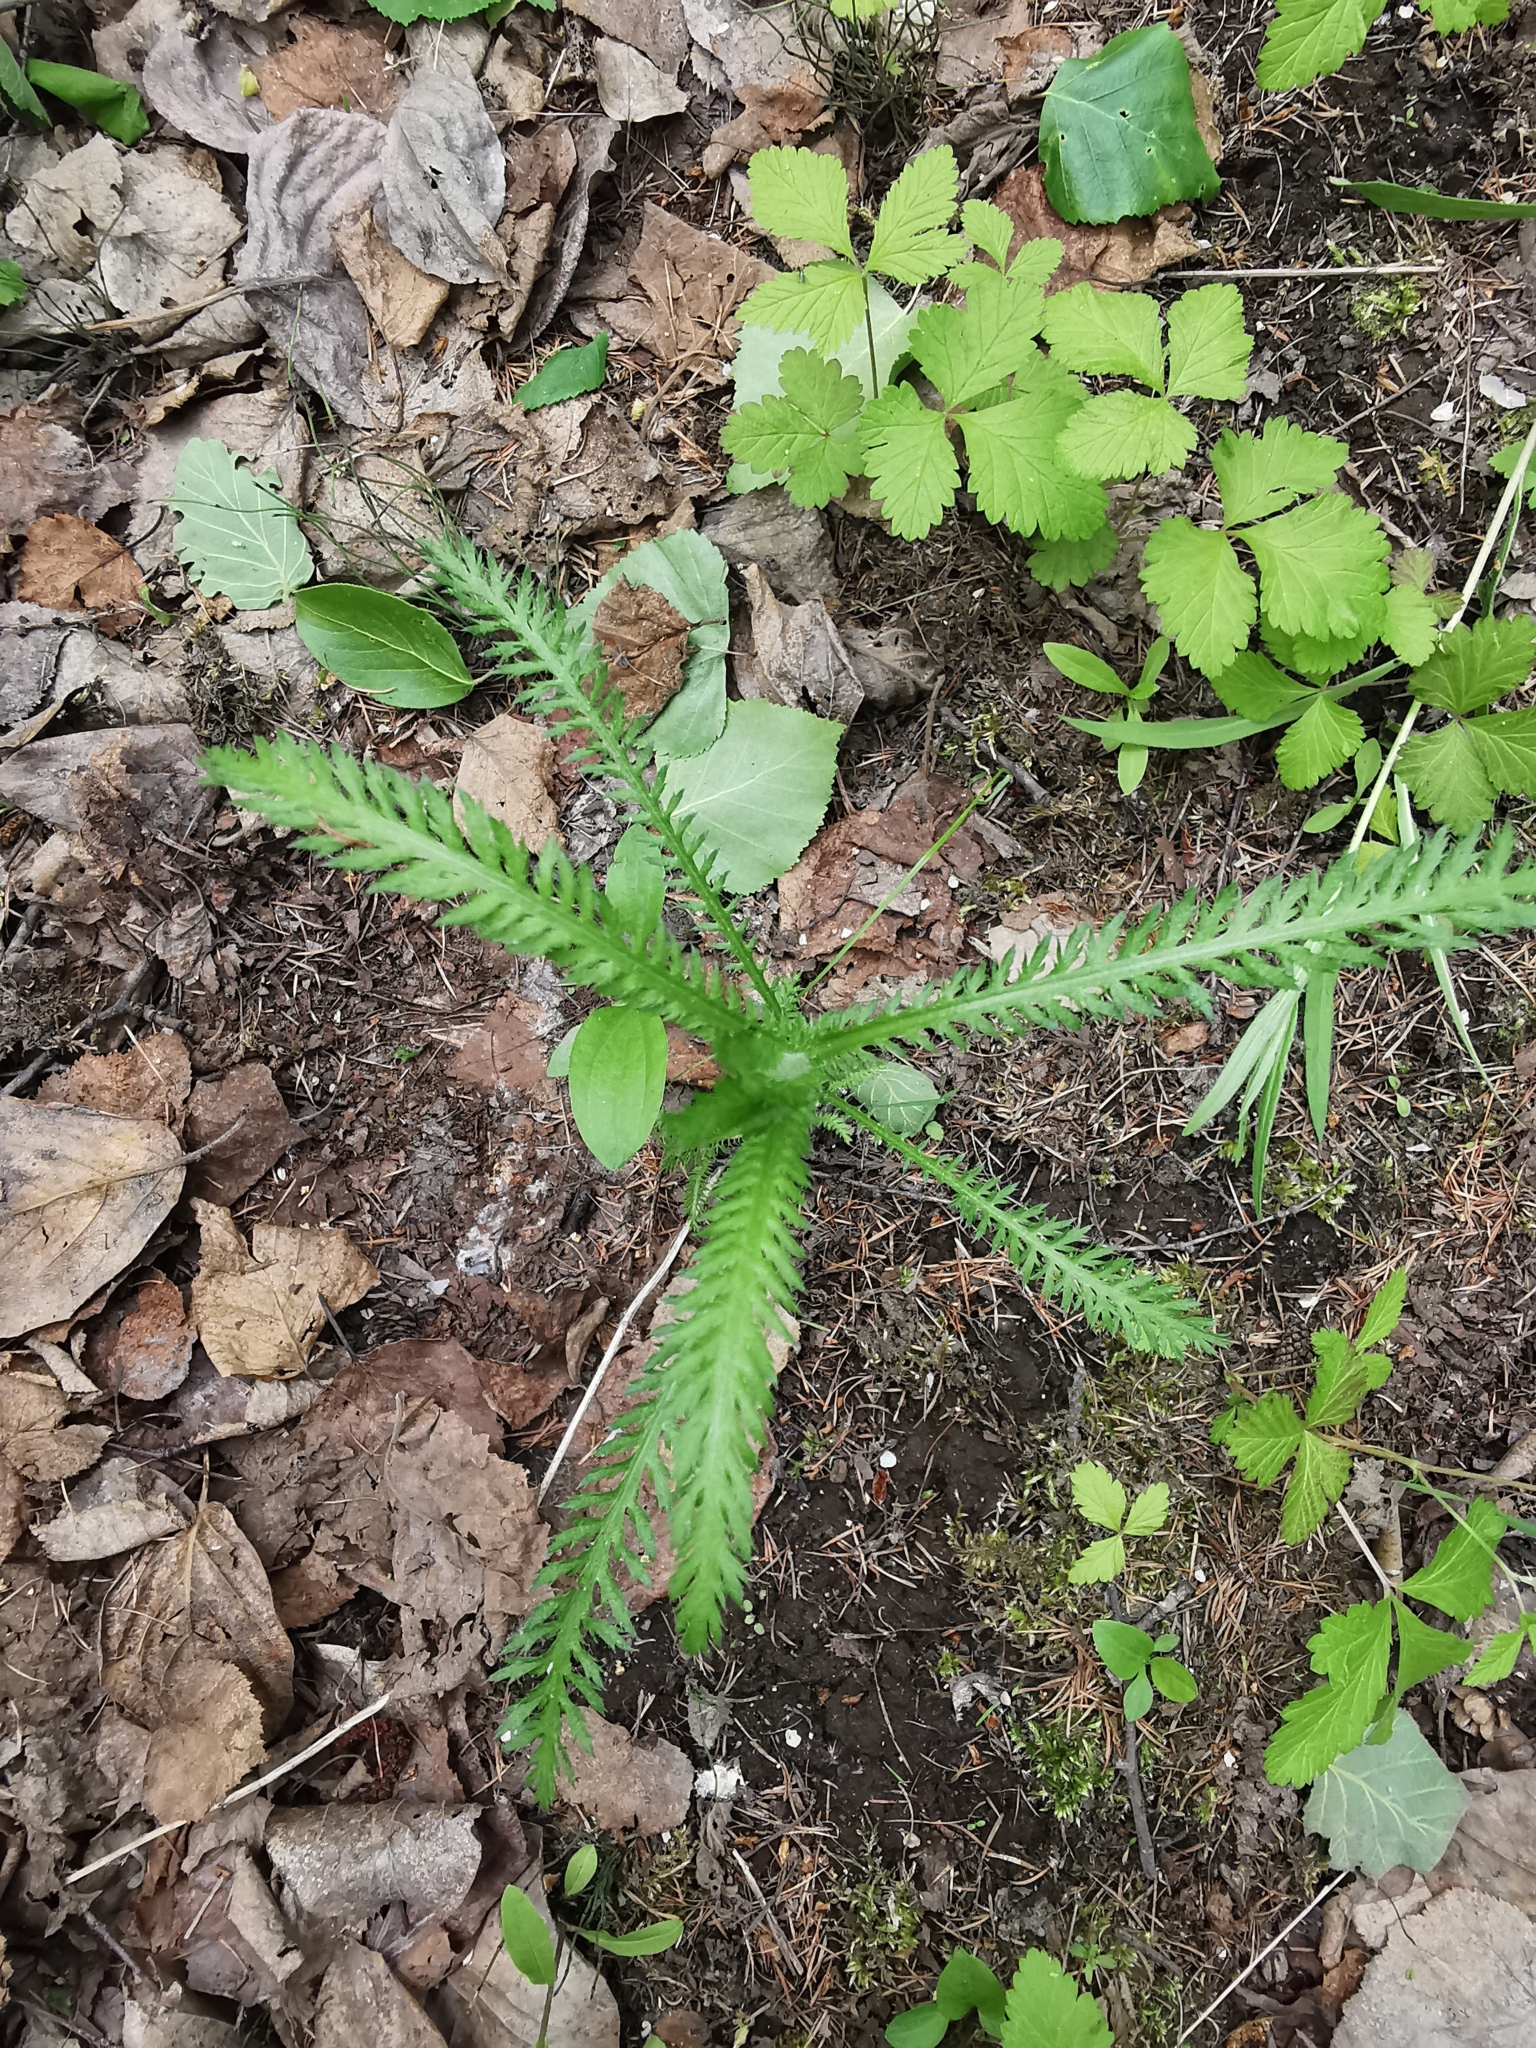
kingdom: Plantae
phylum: Tracheophyta
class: Magnoliopsida
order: Asterales
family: Asteraceae
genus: Achillea
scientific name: Achillea millefolium
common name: Yarrow
